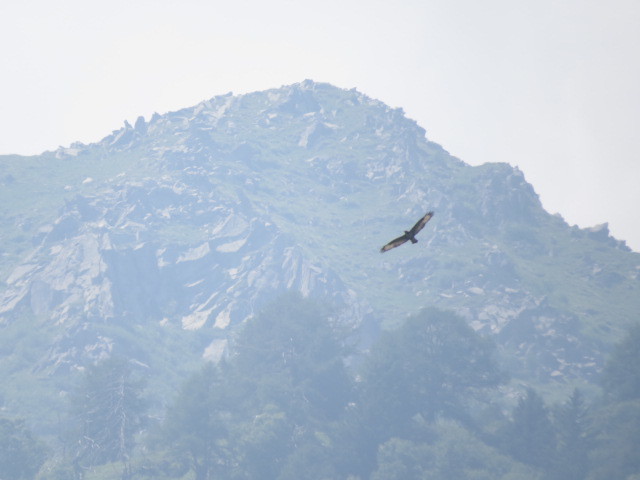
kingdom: Animalia
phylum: Chordata
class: Aves
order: Accipitriformes
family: Accipitridae
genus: Buteo
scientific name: Buteo buteo
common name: Common buzzard
